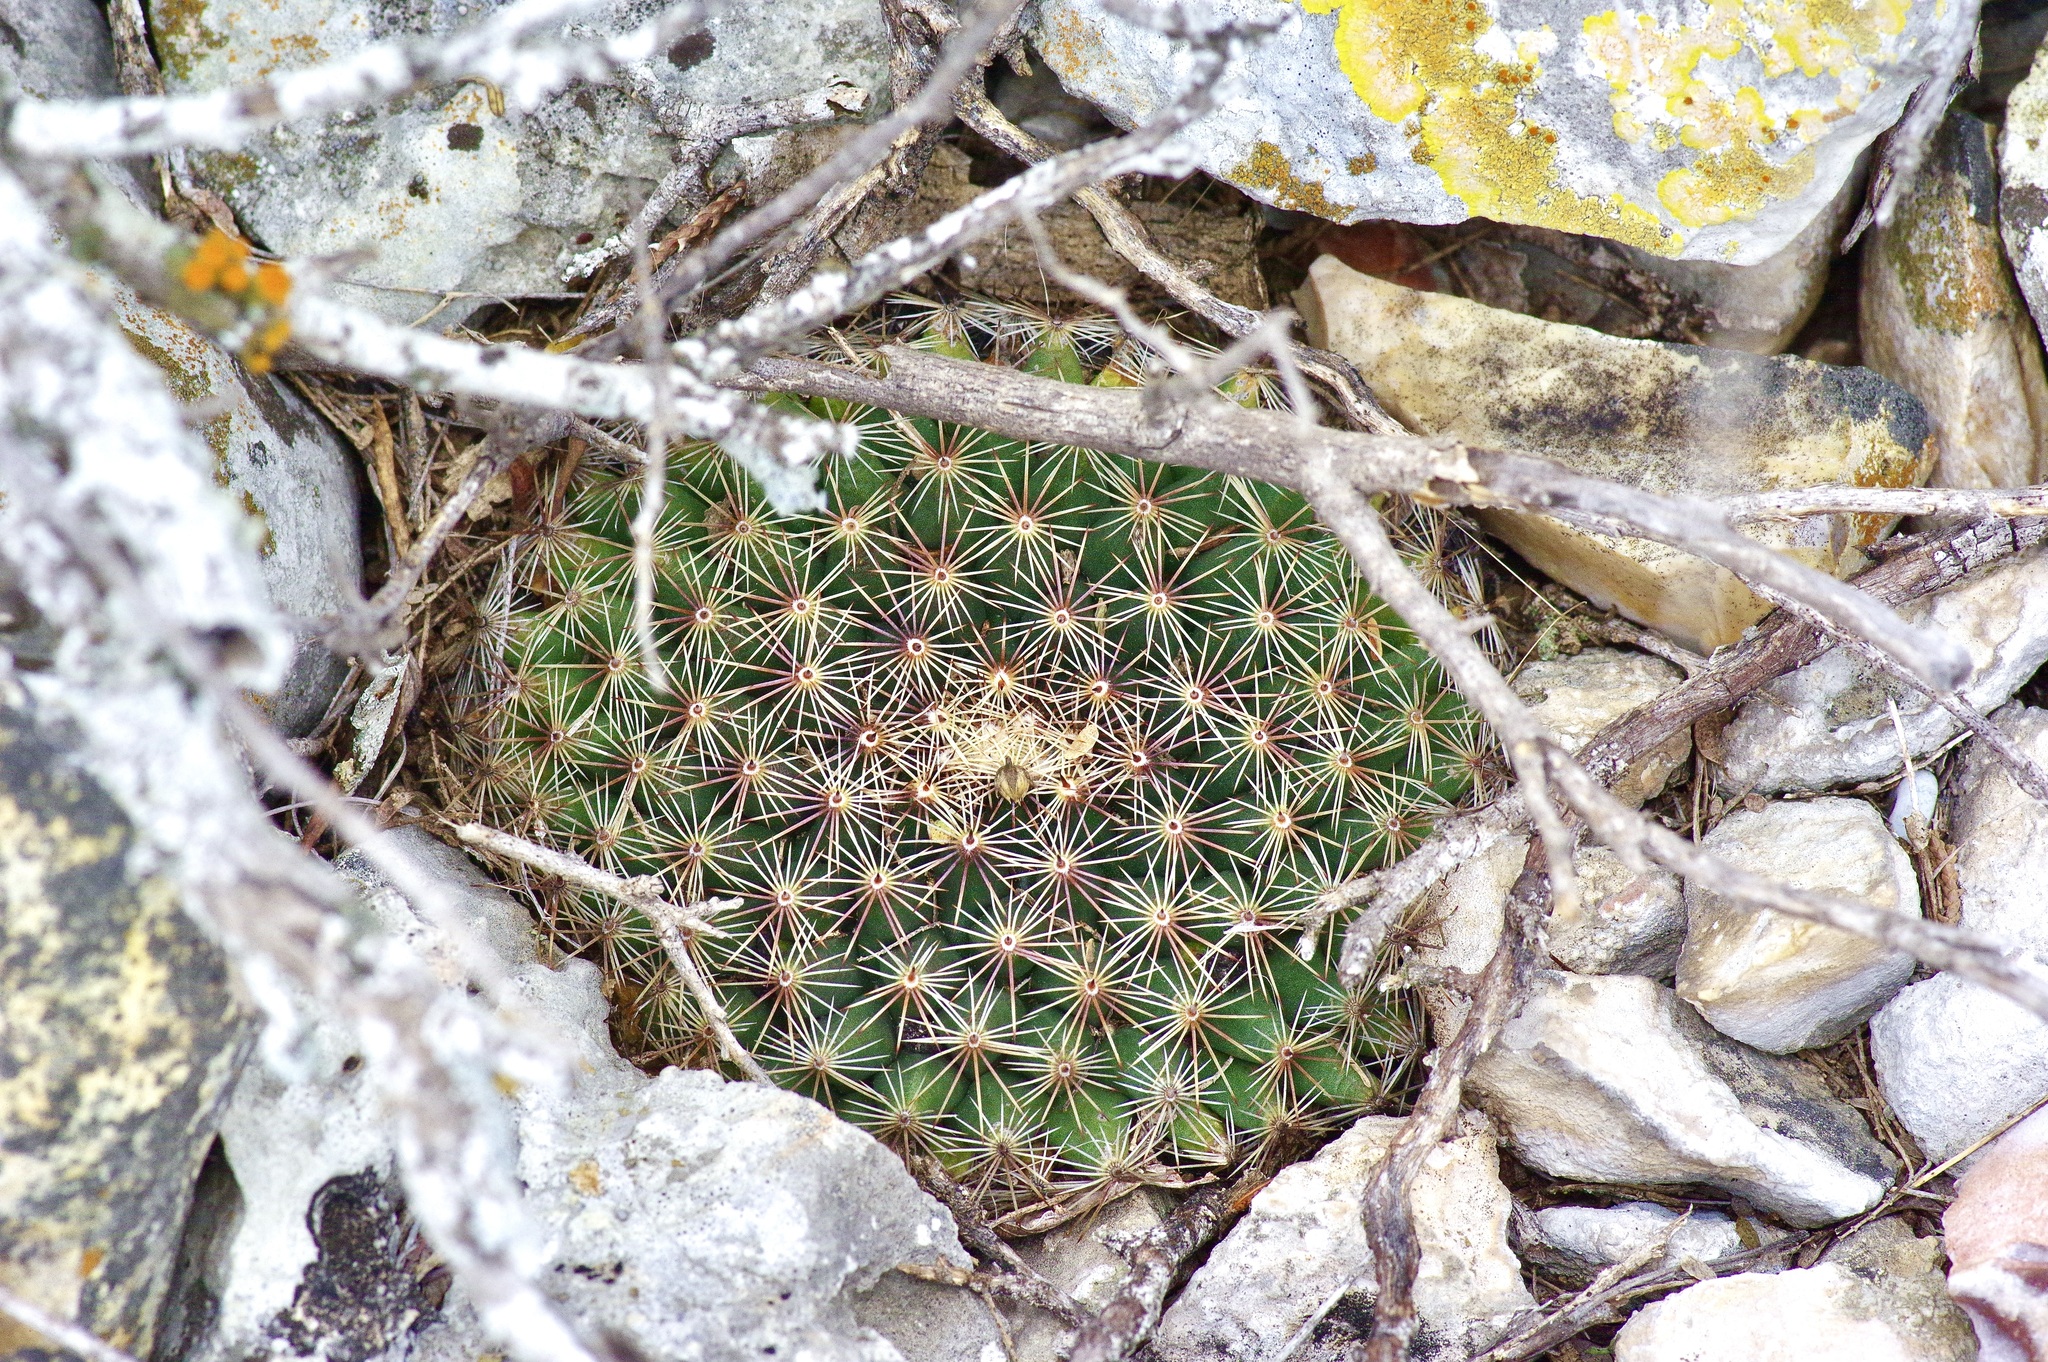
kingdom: Plantae
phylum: Tracheophyta
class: Magnoliopsida
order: Caryophyllales
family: Cactaceae
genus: Mammillaria
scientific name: Mammillaria heyderi
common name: Little nipple cactus
